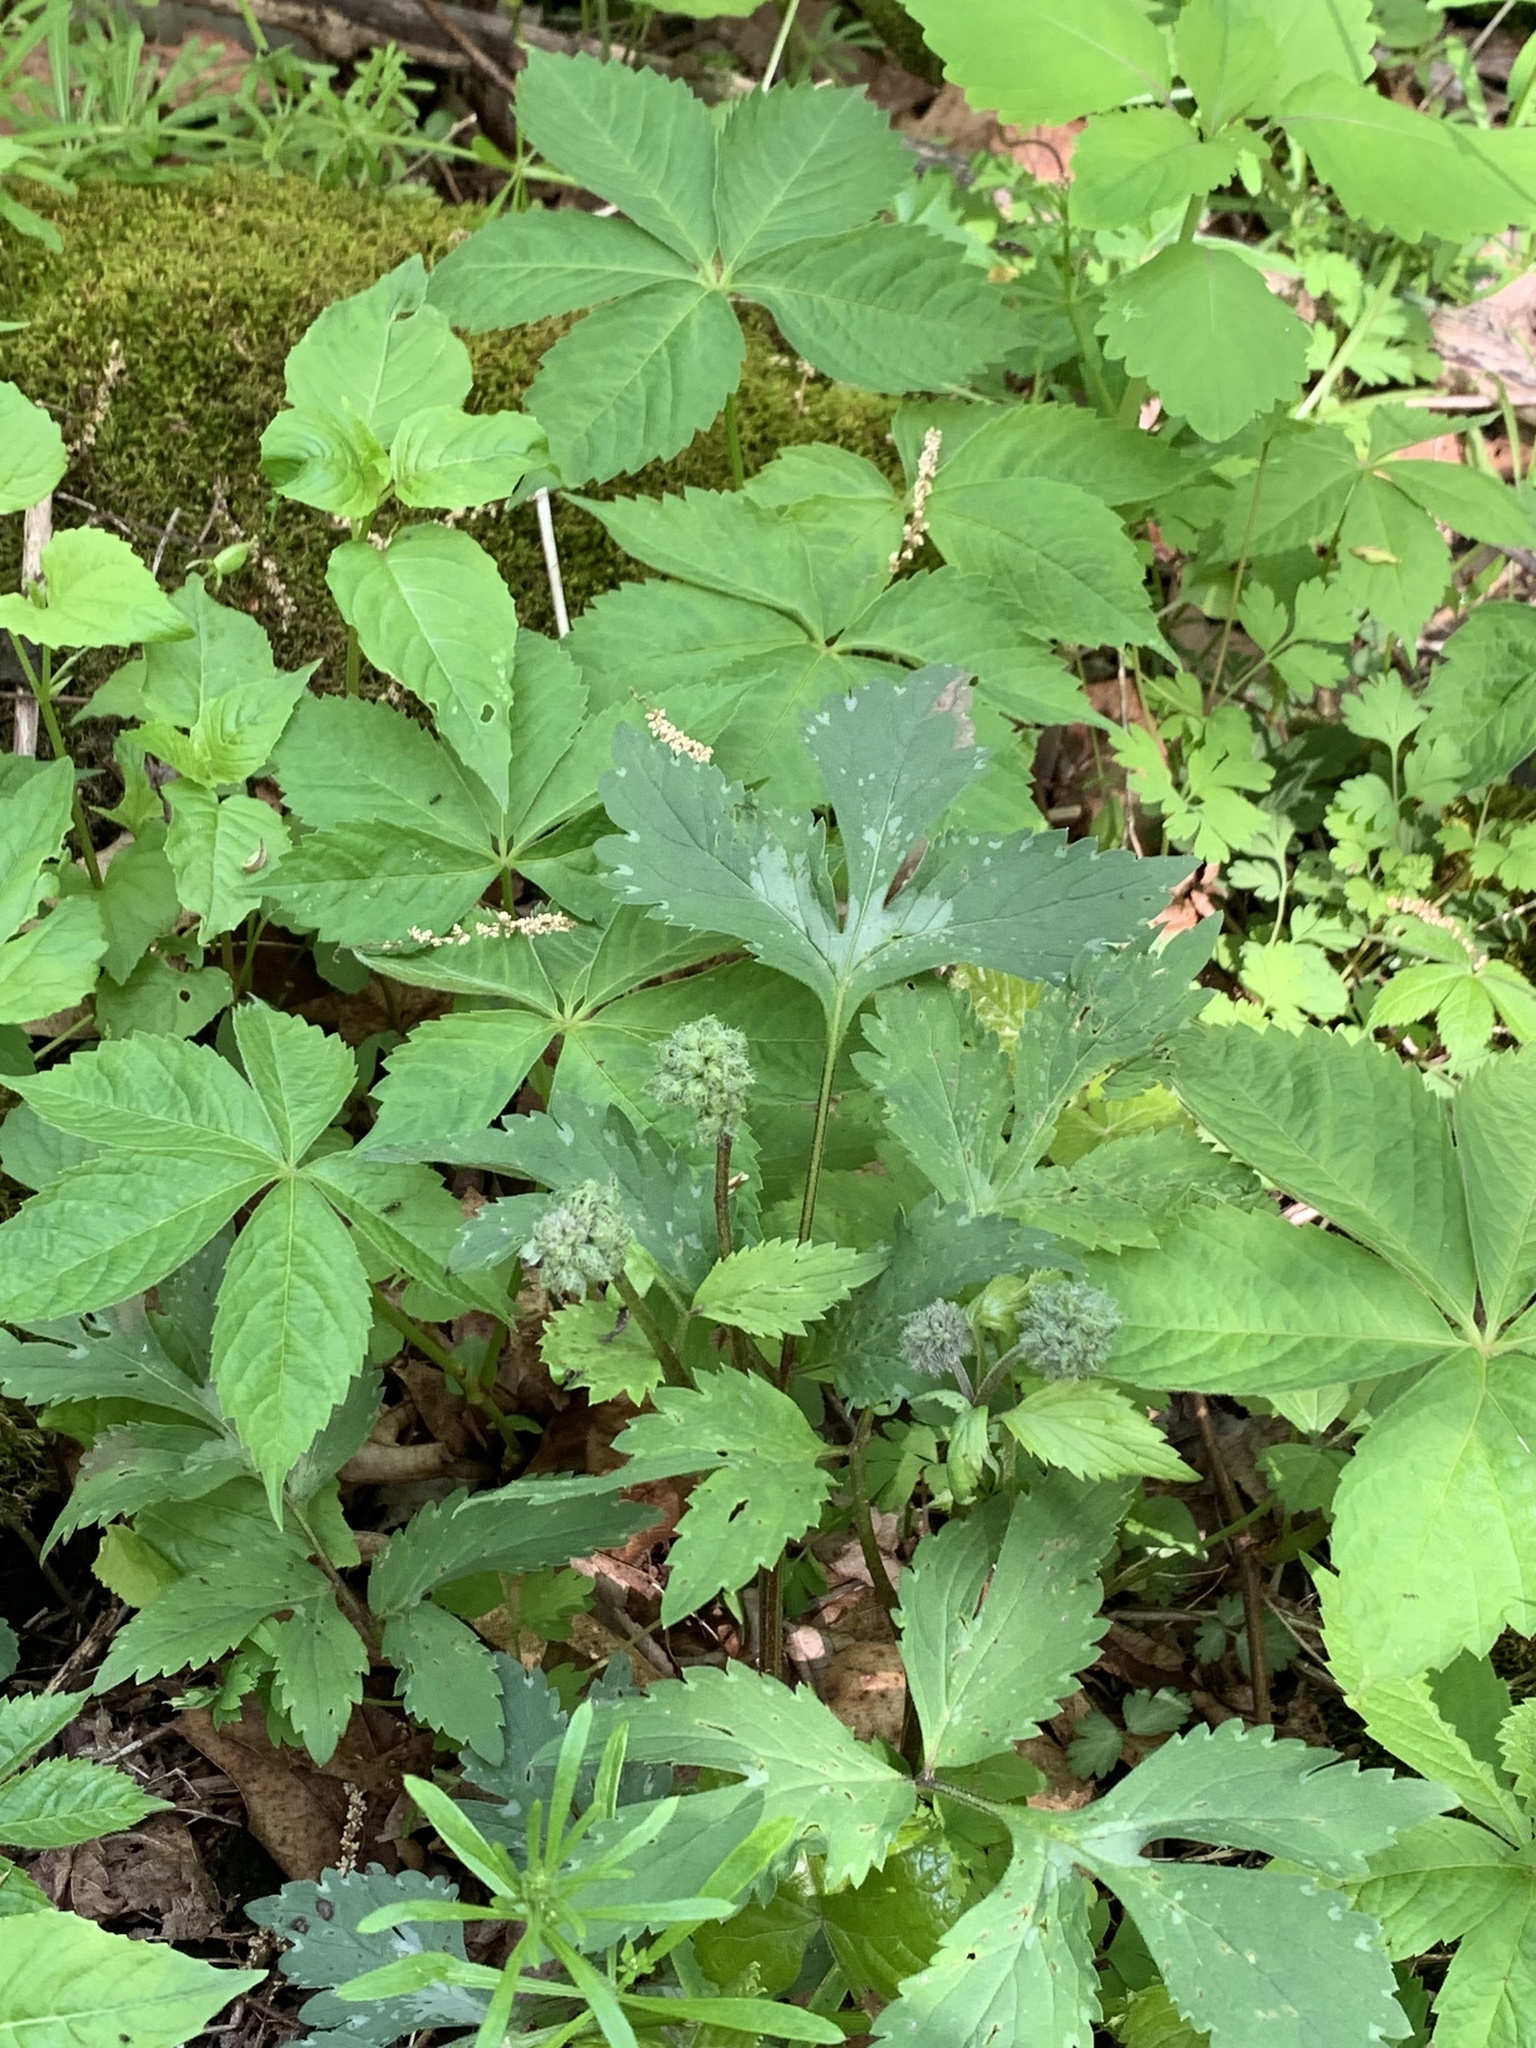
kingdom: Plantae
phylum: Tracheophyta
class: Magnoliopsida
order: Boraginales
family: Hydrophyllaceae
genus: Hydrophyllum
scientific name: Hydrophyllum virginianum
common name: Virginia waterleaf
